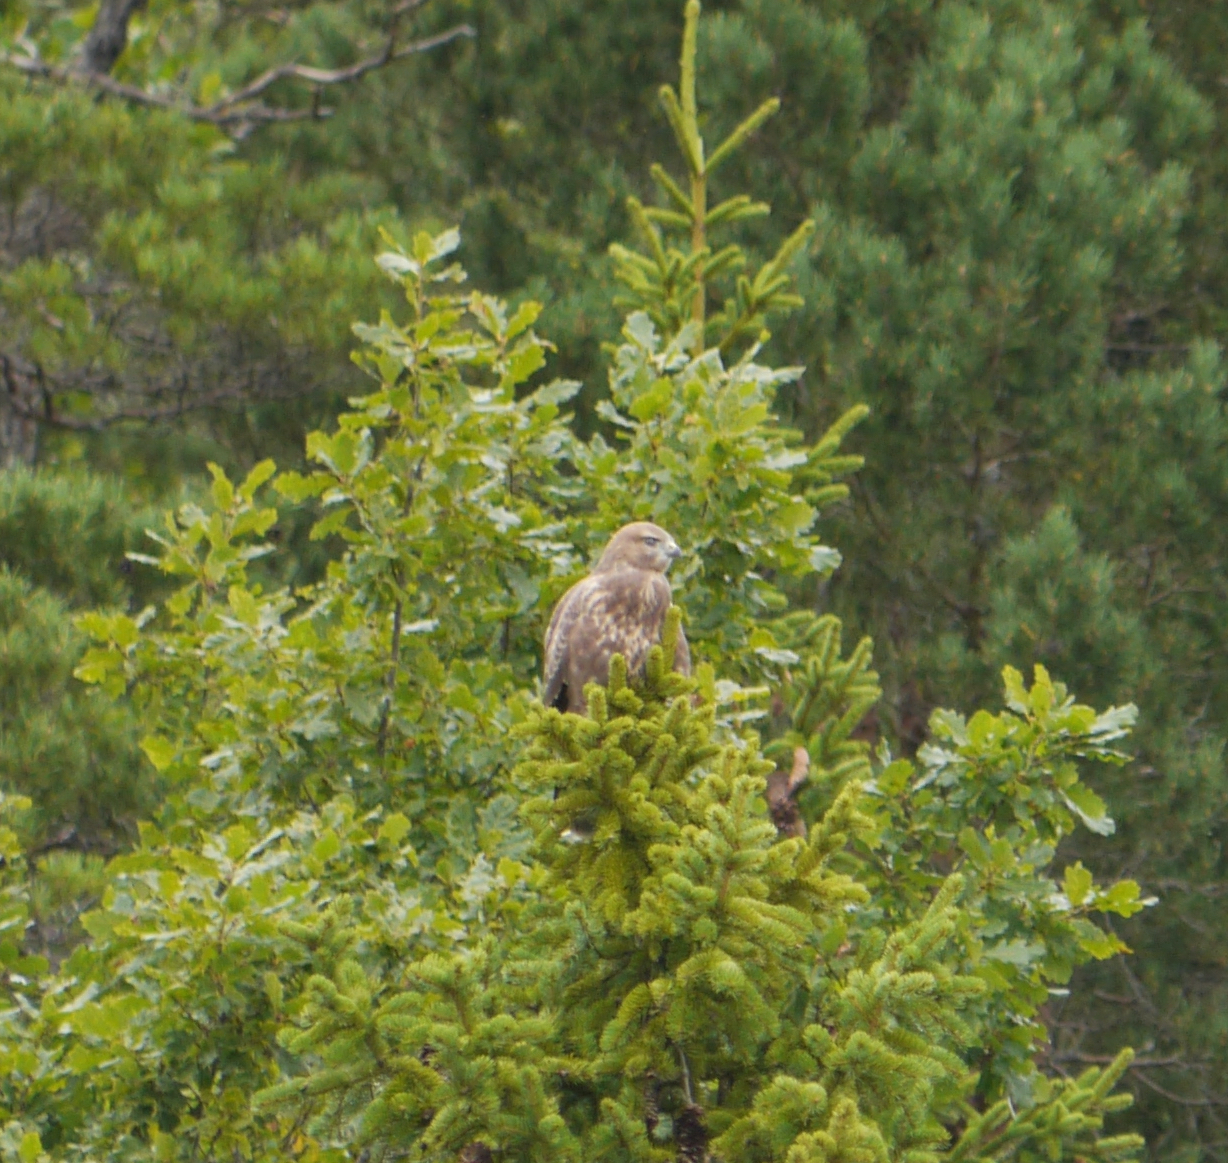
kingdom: Animalia
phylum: Chordata
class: Aves
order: Accipitriformes
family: Accipitridae
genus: Buteo
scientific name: Buteo buteo
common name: Common buzzard
